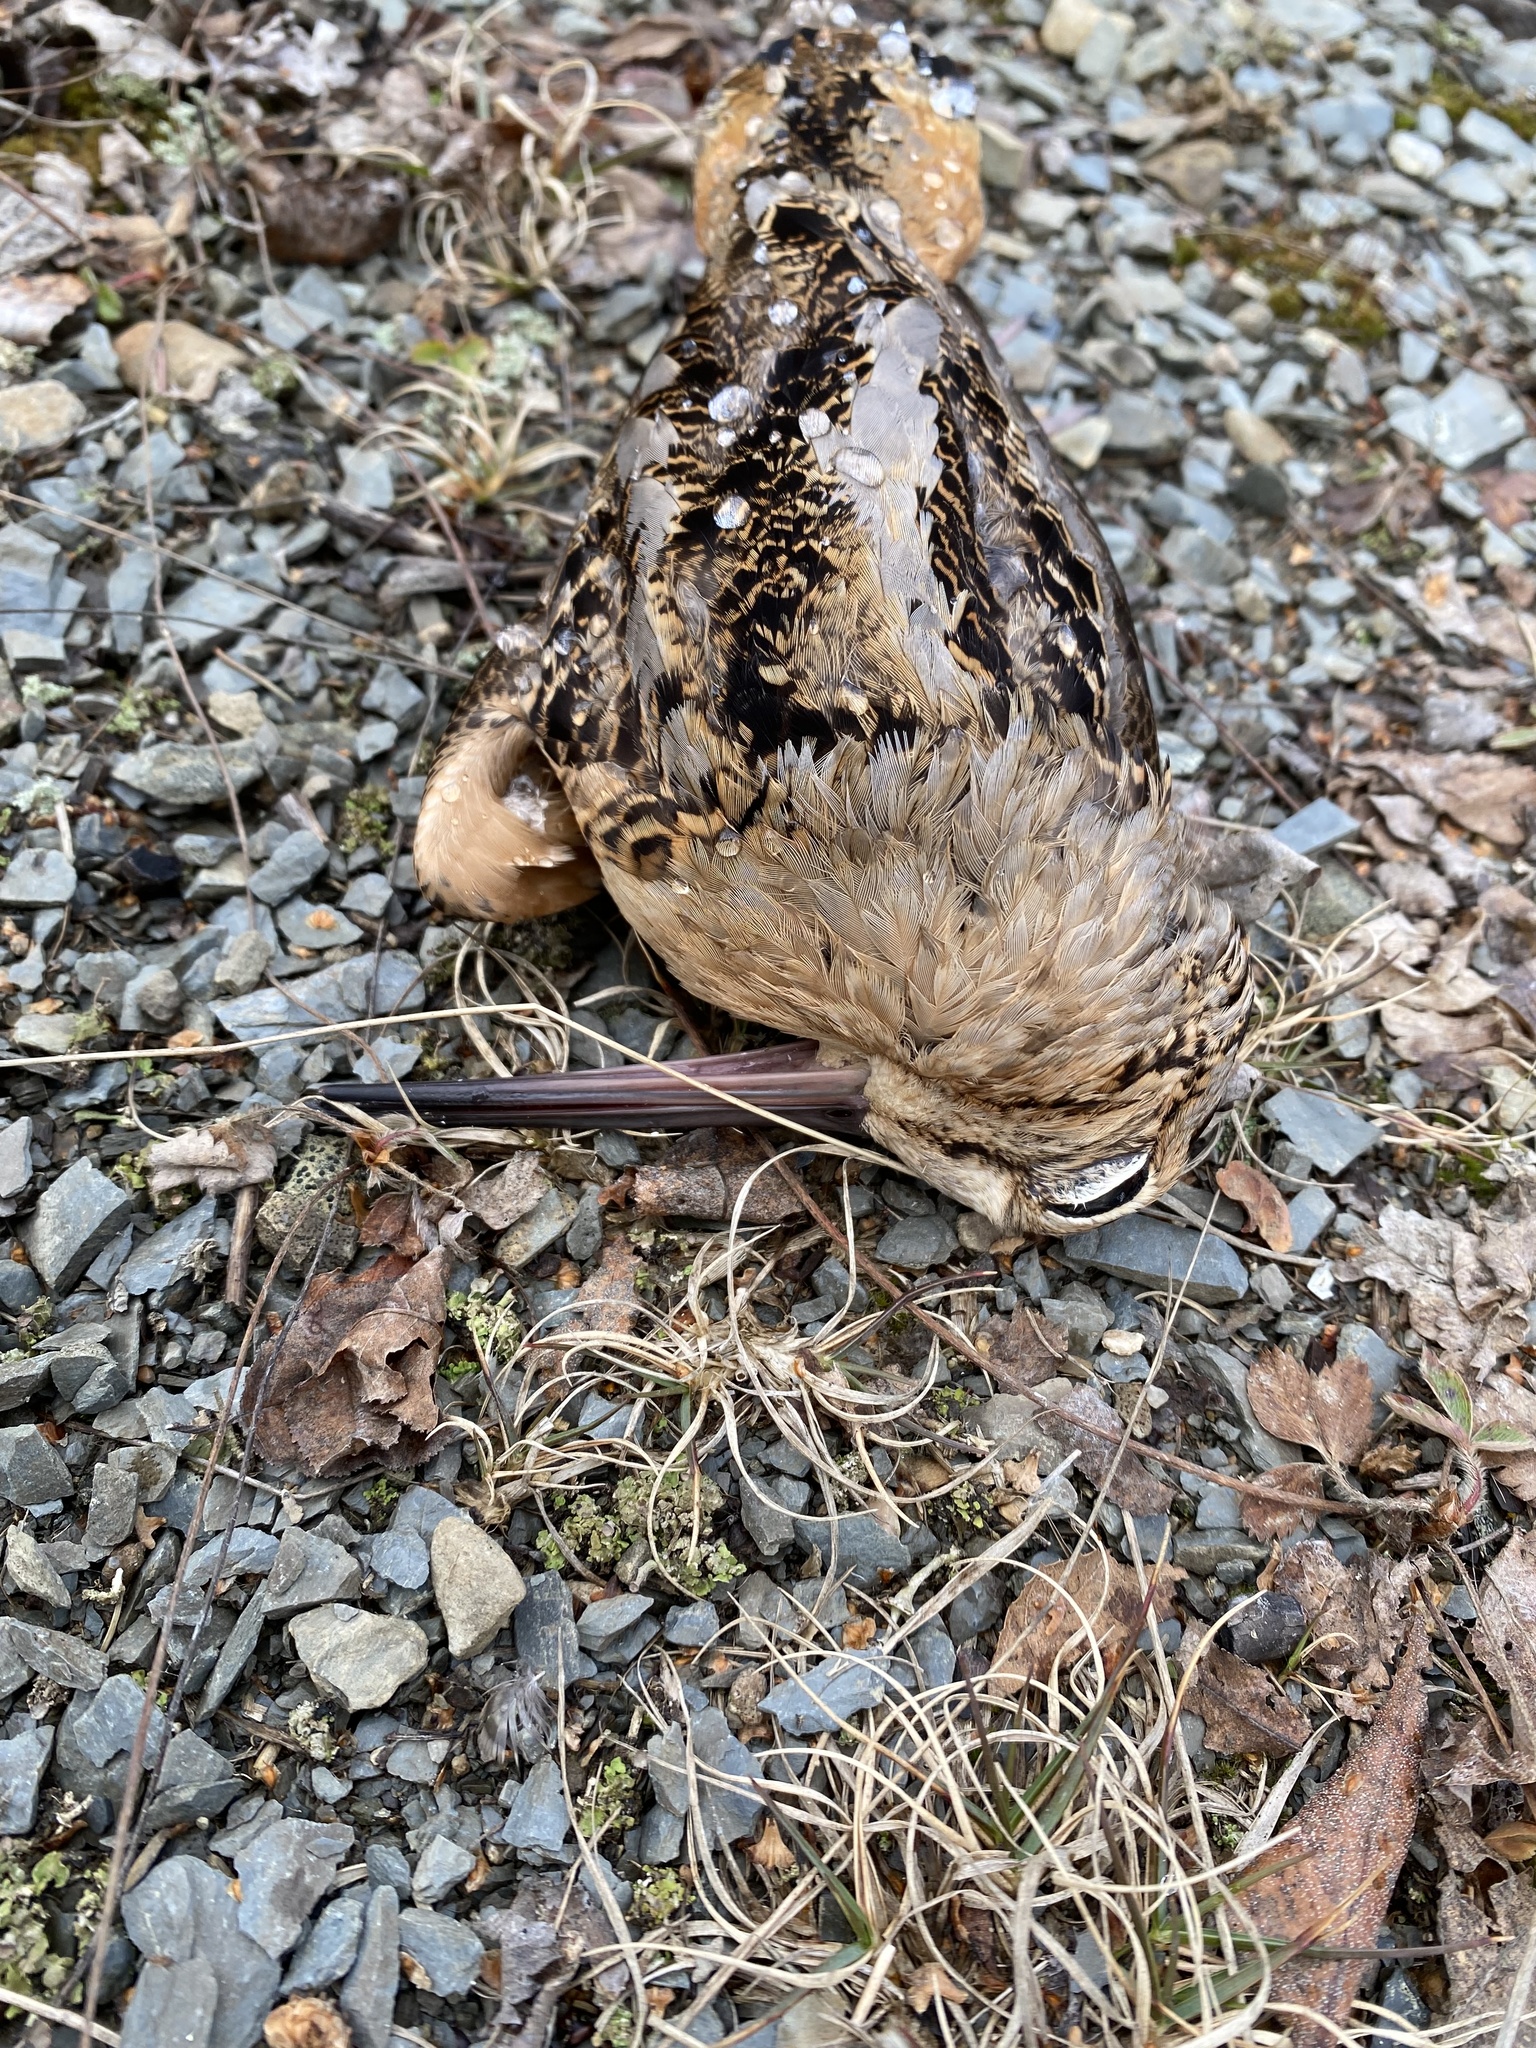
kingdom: Animalia
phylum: Chordata
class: Aves
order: Charadriiformes
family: Scolopacidae
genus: Scolopax
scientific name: Scolopax minor
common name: American woodcock
